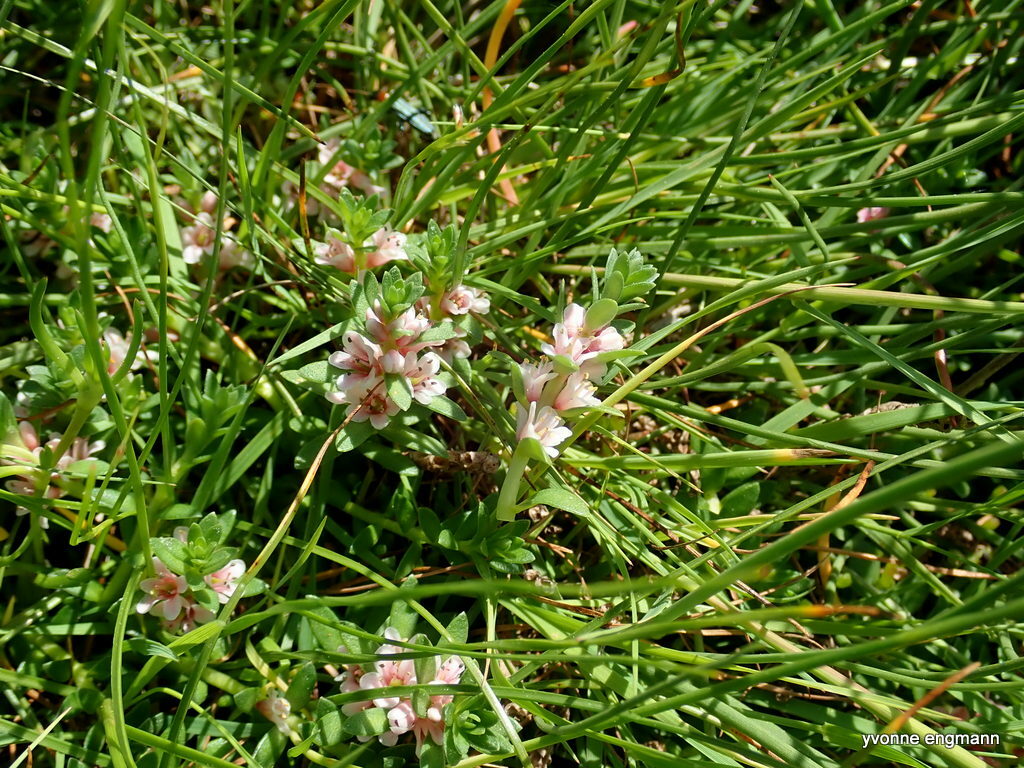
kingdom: Plantae
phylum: Tracheophyta
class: Magnoliopsida
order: Ericales
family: Primulaceae
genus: Lysimachia
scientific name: Lysimachia maritima
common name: Sea milkwort
